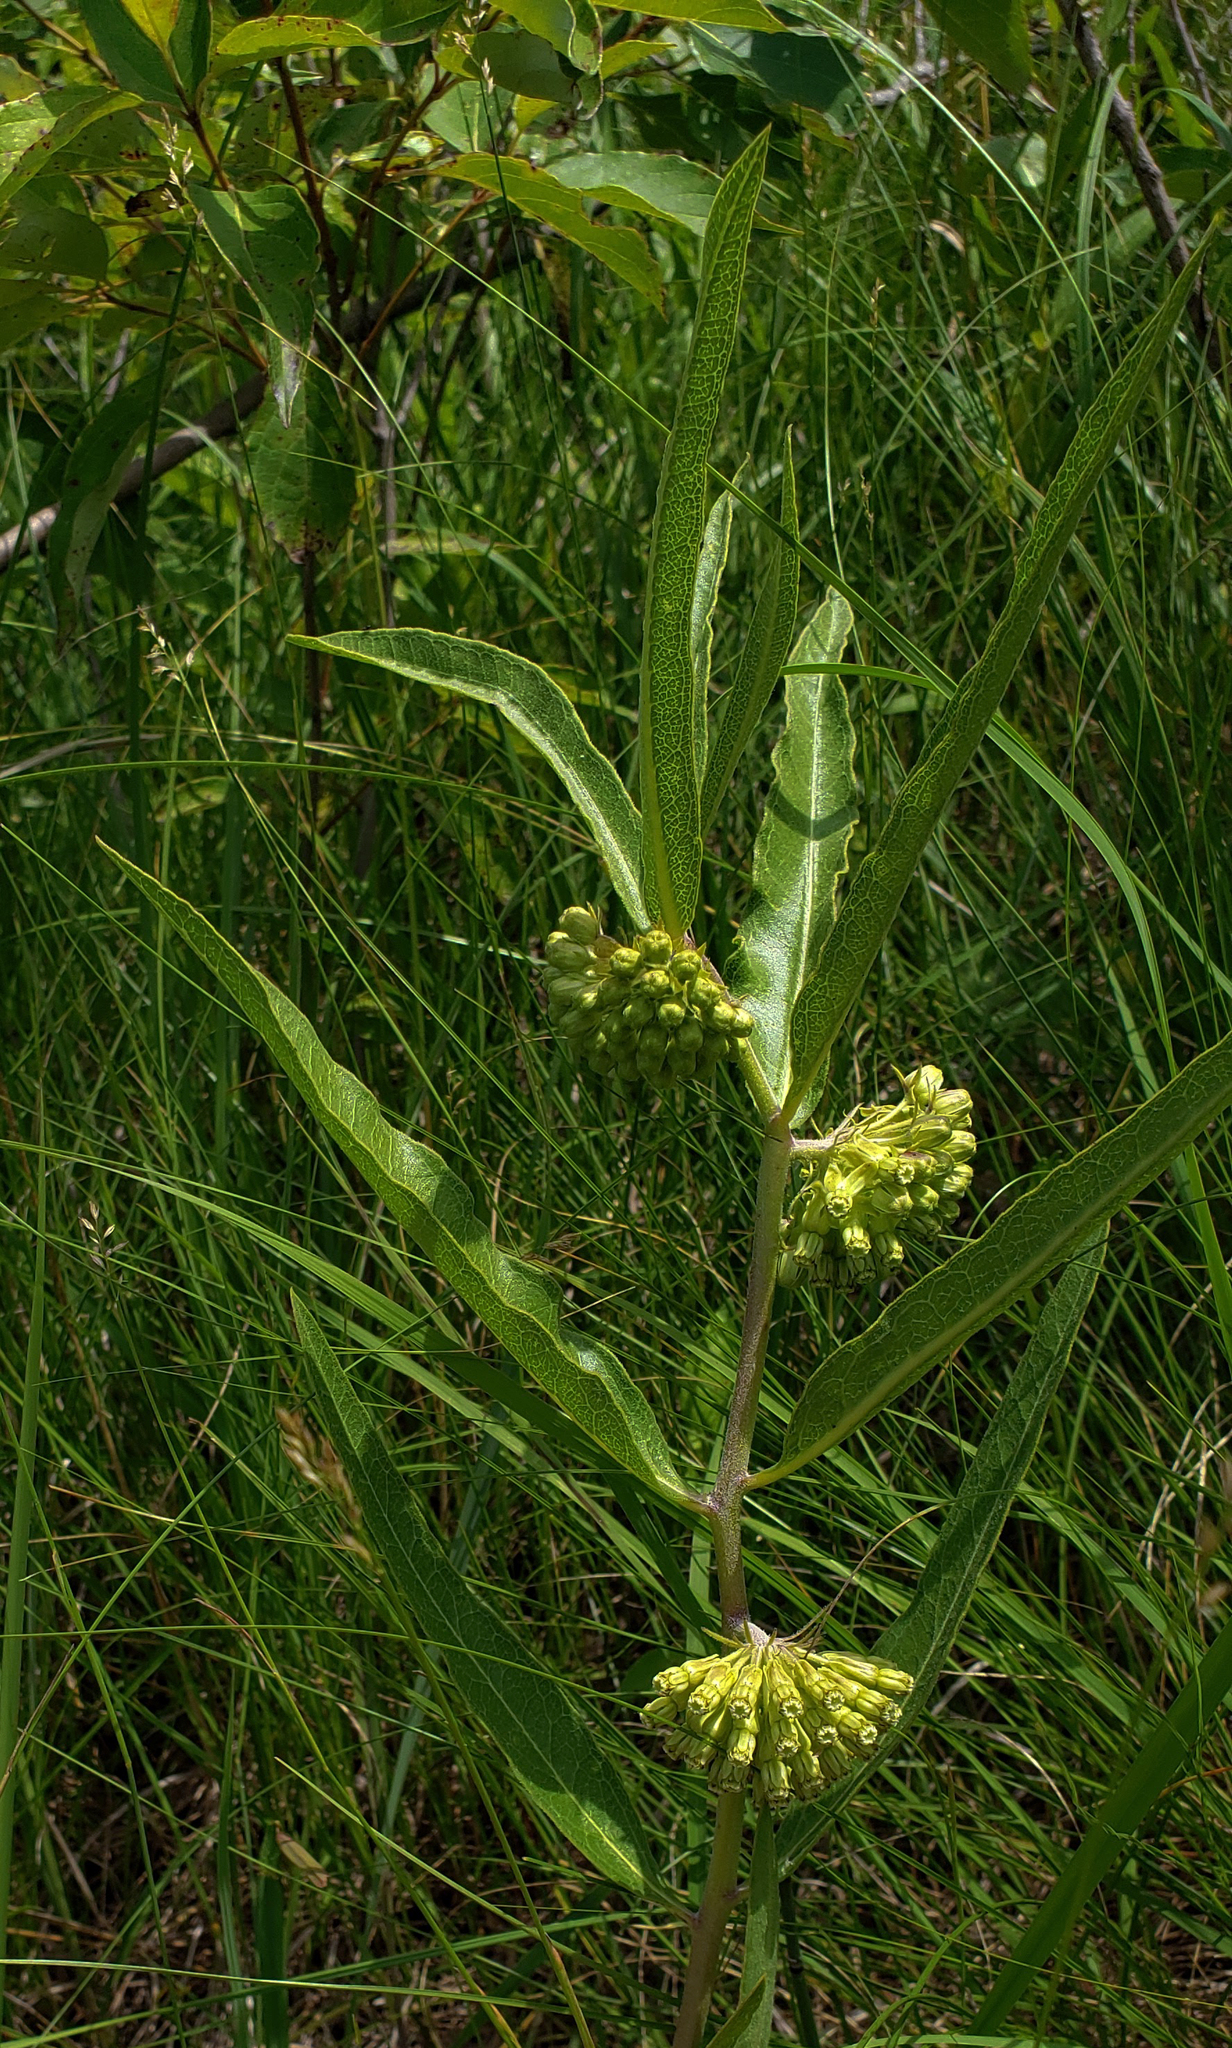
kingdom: Plantae
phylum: Tracheophyta
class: Magnoliopsida
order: Gentianales
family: Apocynaceae
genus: Asclepias
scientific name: Asclepias viridiflora
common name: Green comet milkweed
